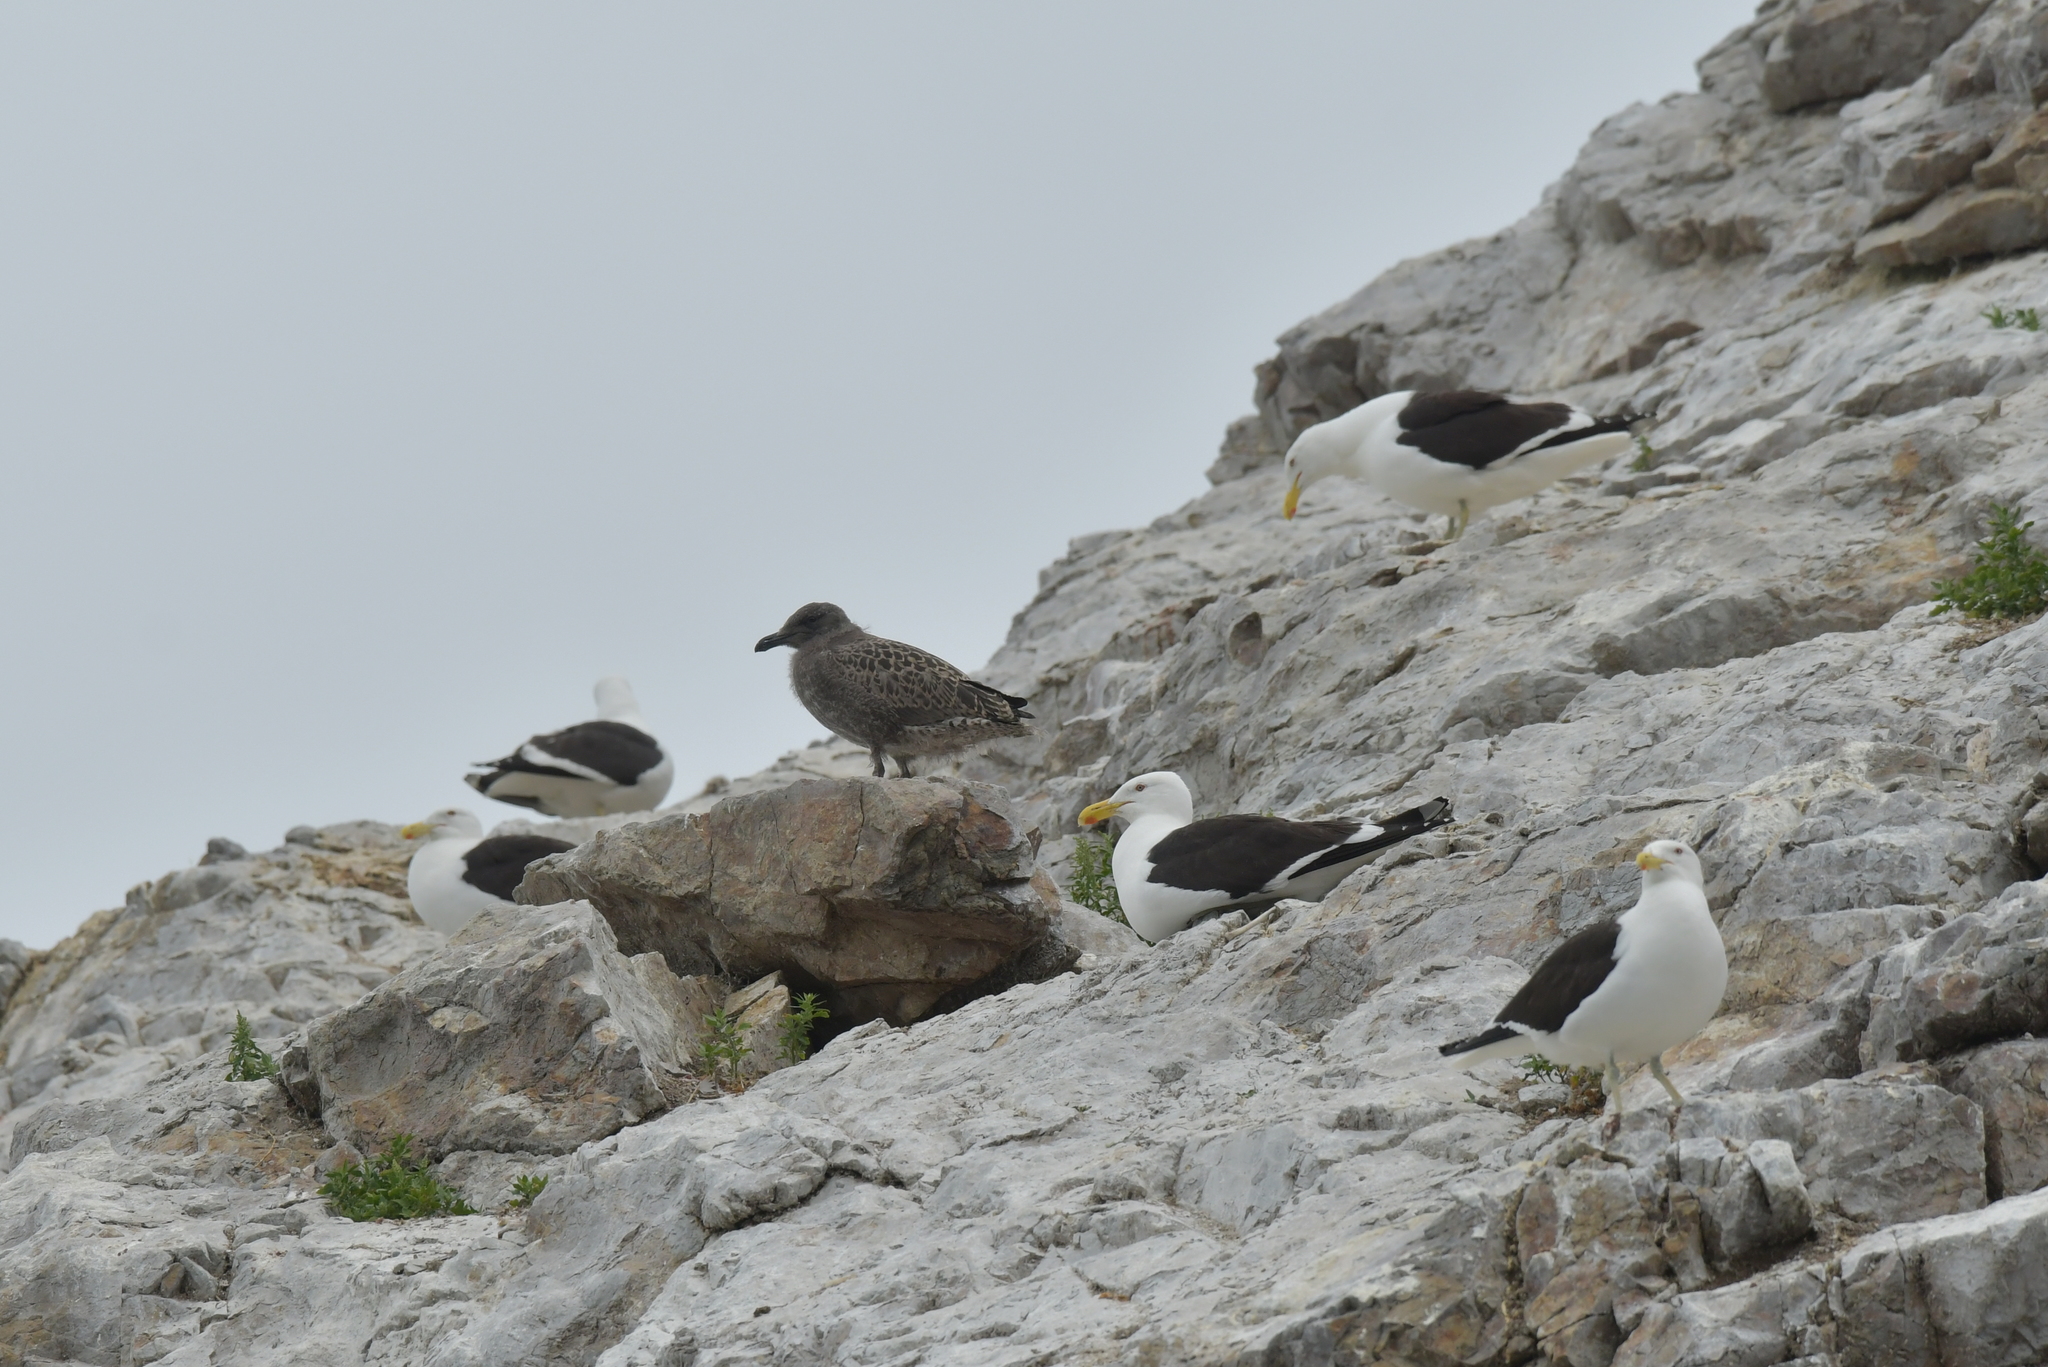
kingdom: Animalia
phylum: Chordata
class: Aves
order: Charadriiformes
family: Laridae
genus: Larus
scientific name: Larus dominicanus
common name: Kelp gull
